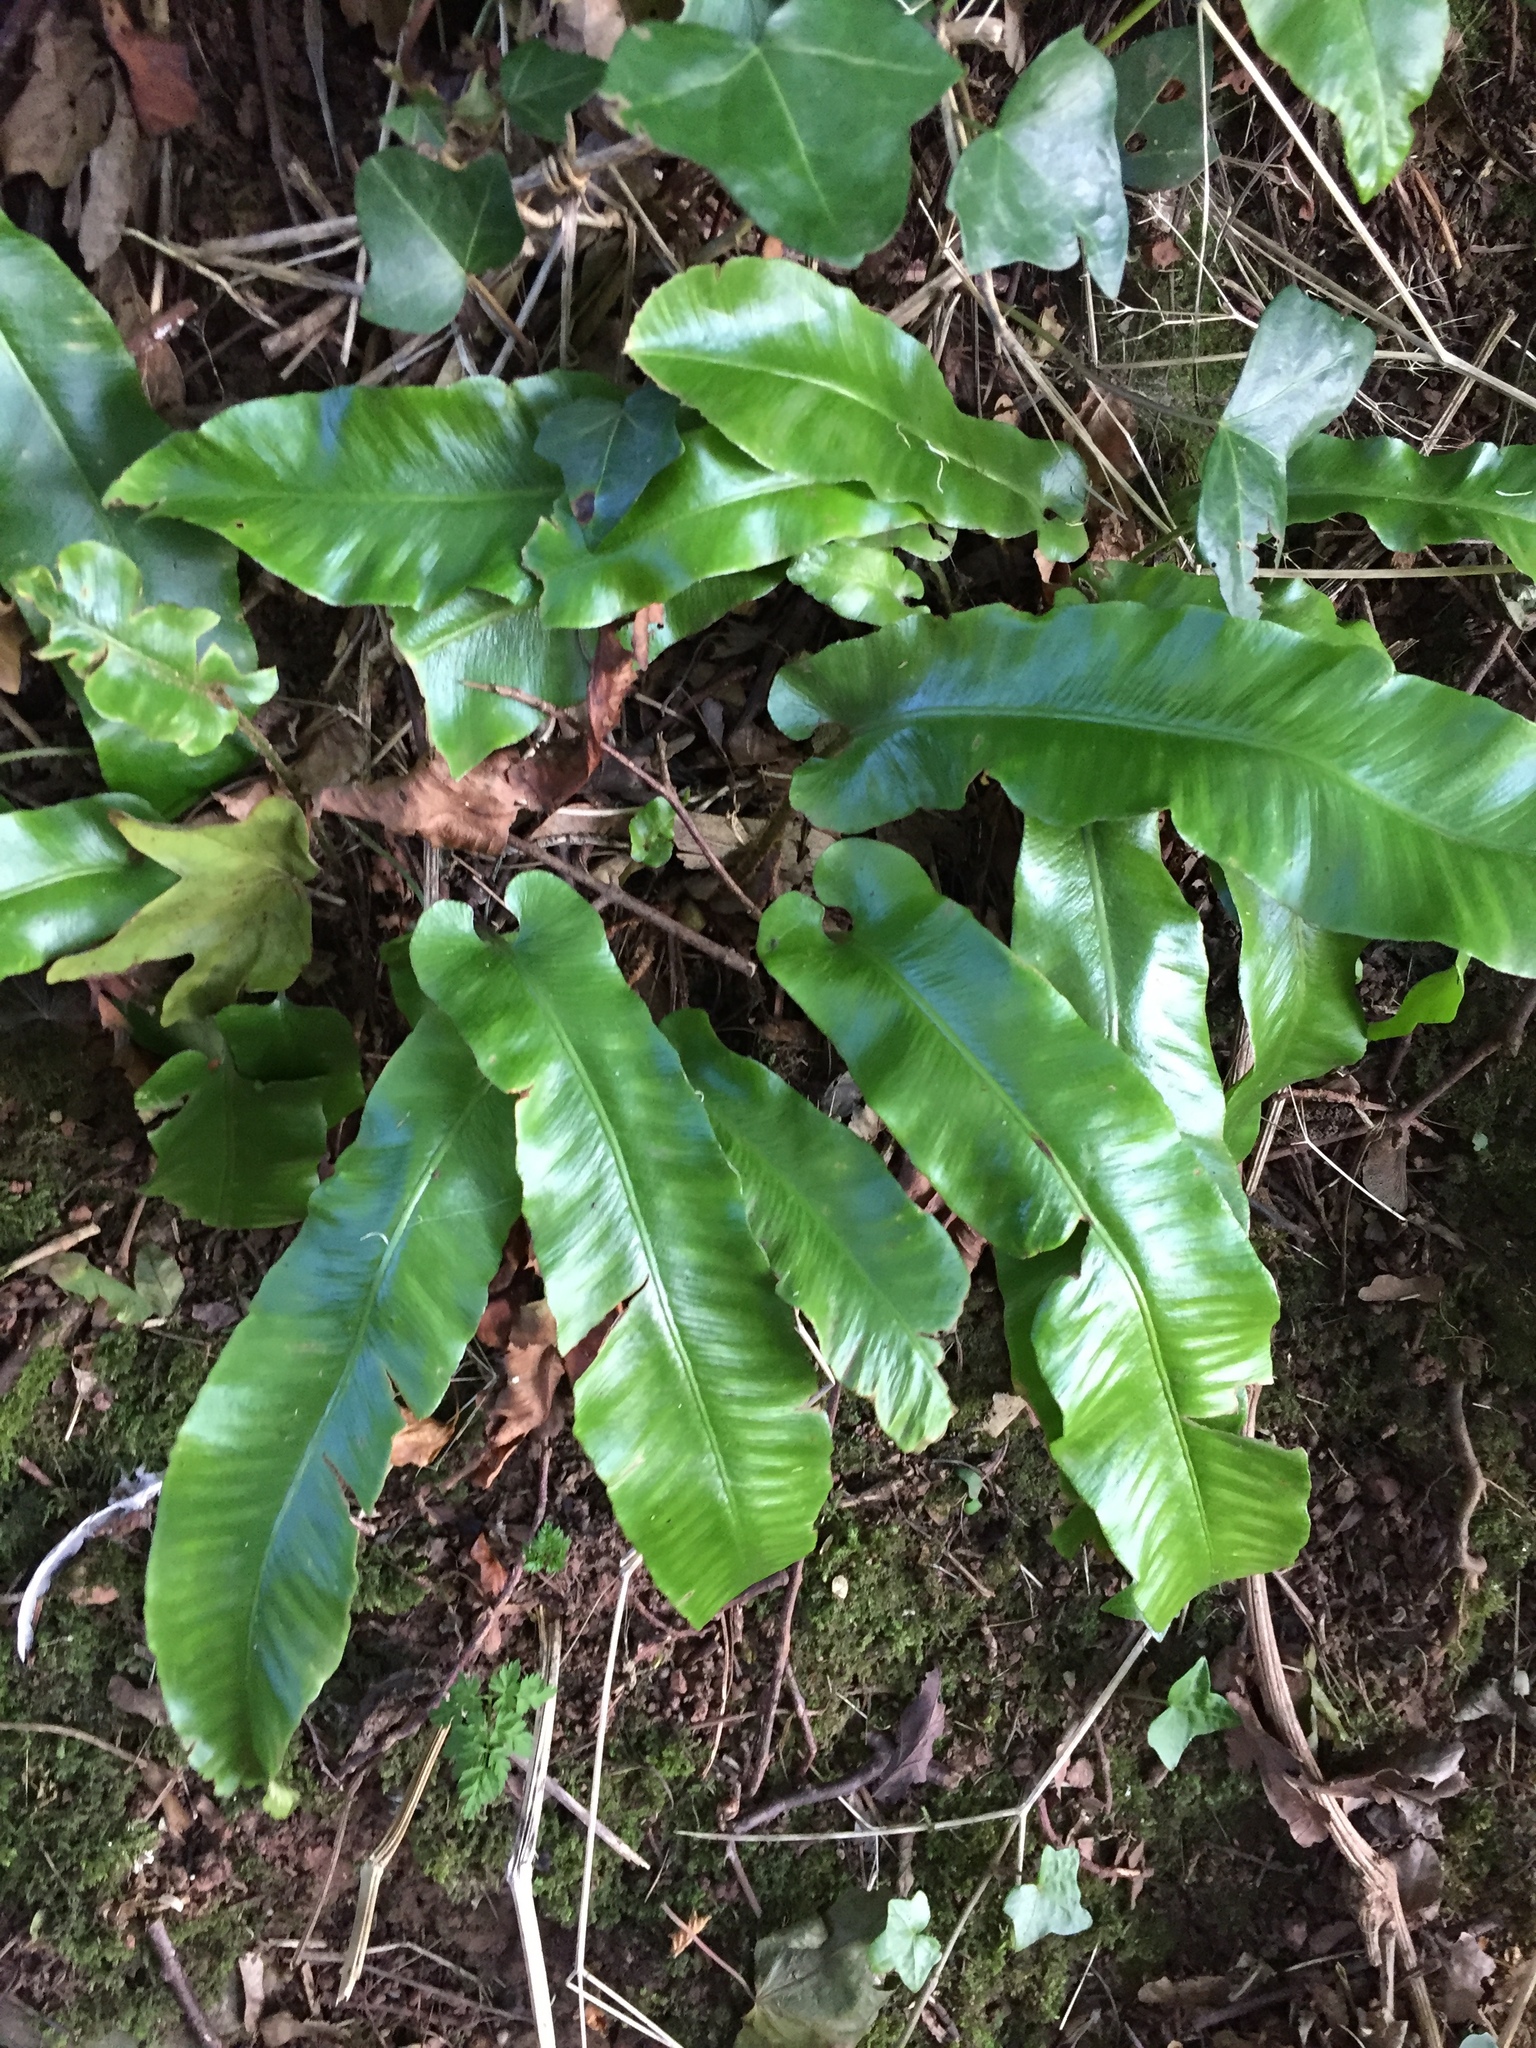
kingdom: Plantae
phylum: Tracheophyta
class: Polypodiopsida
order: Polypodiales
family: Aspleniaceae
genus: Asplenium
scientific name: Asplenium scolopendrium
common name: Hart's-tongue fern
